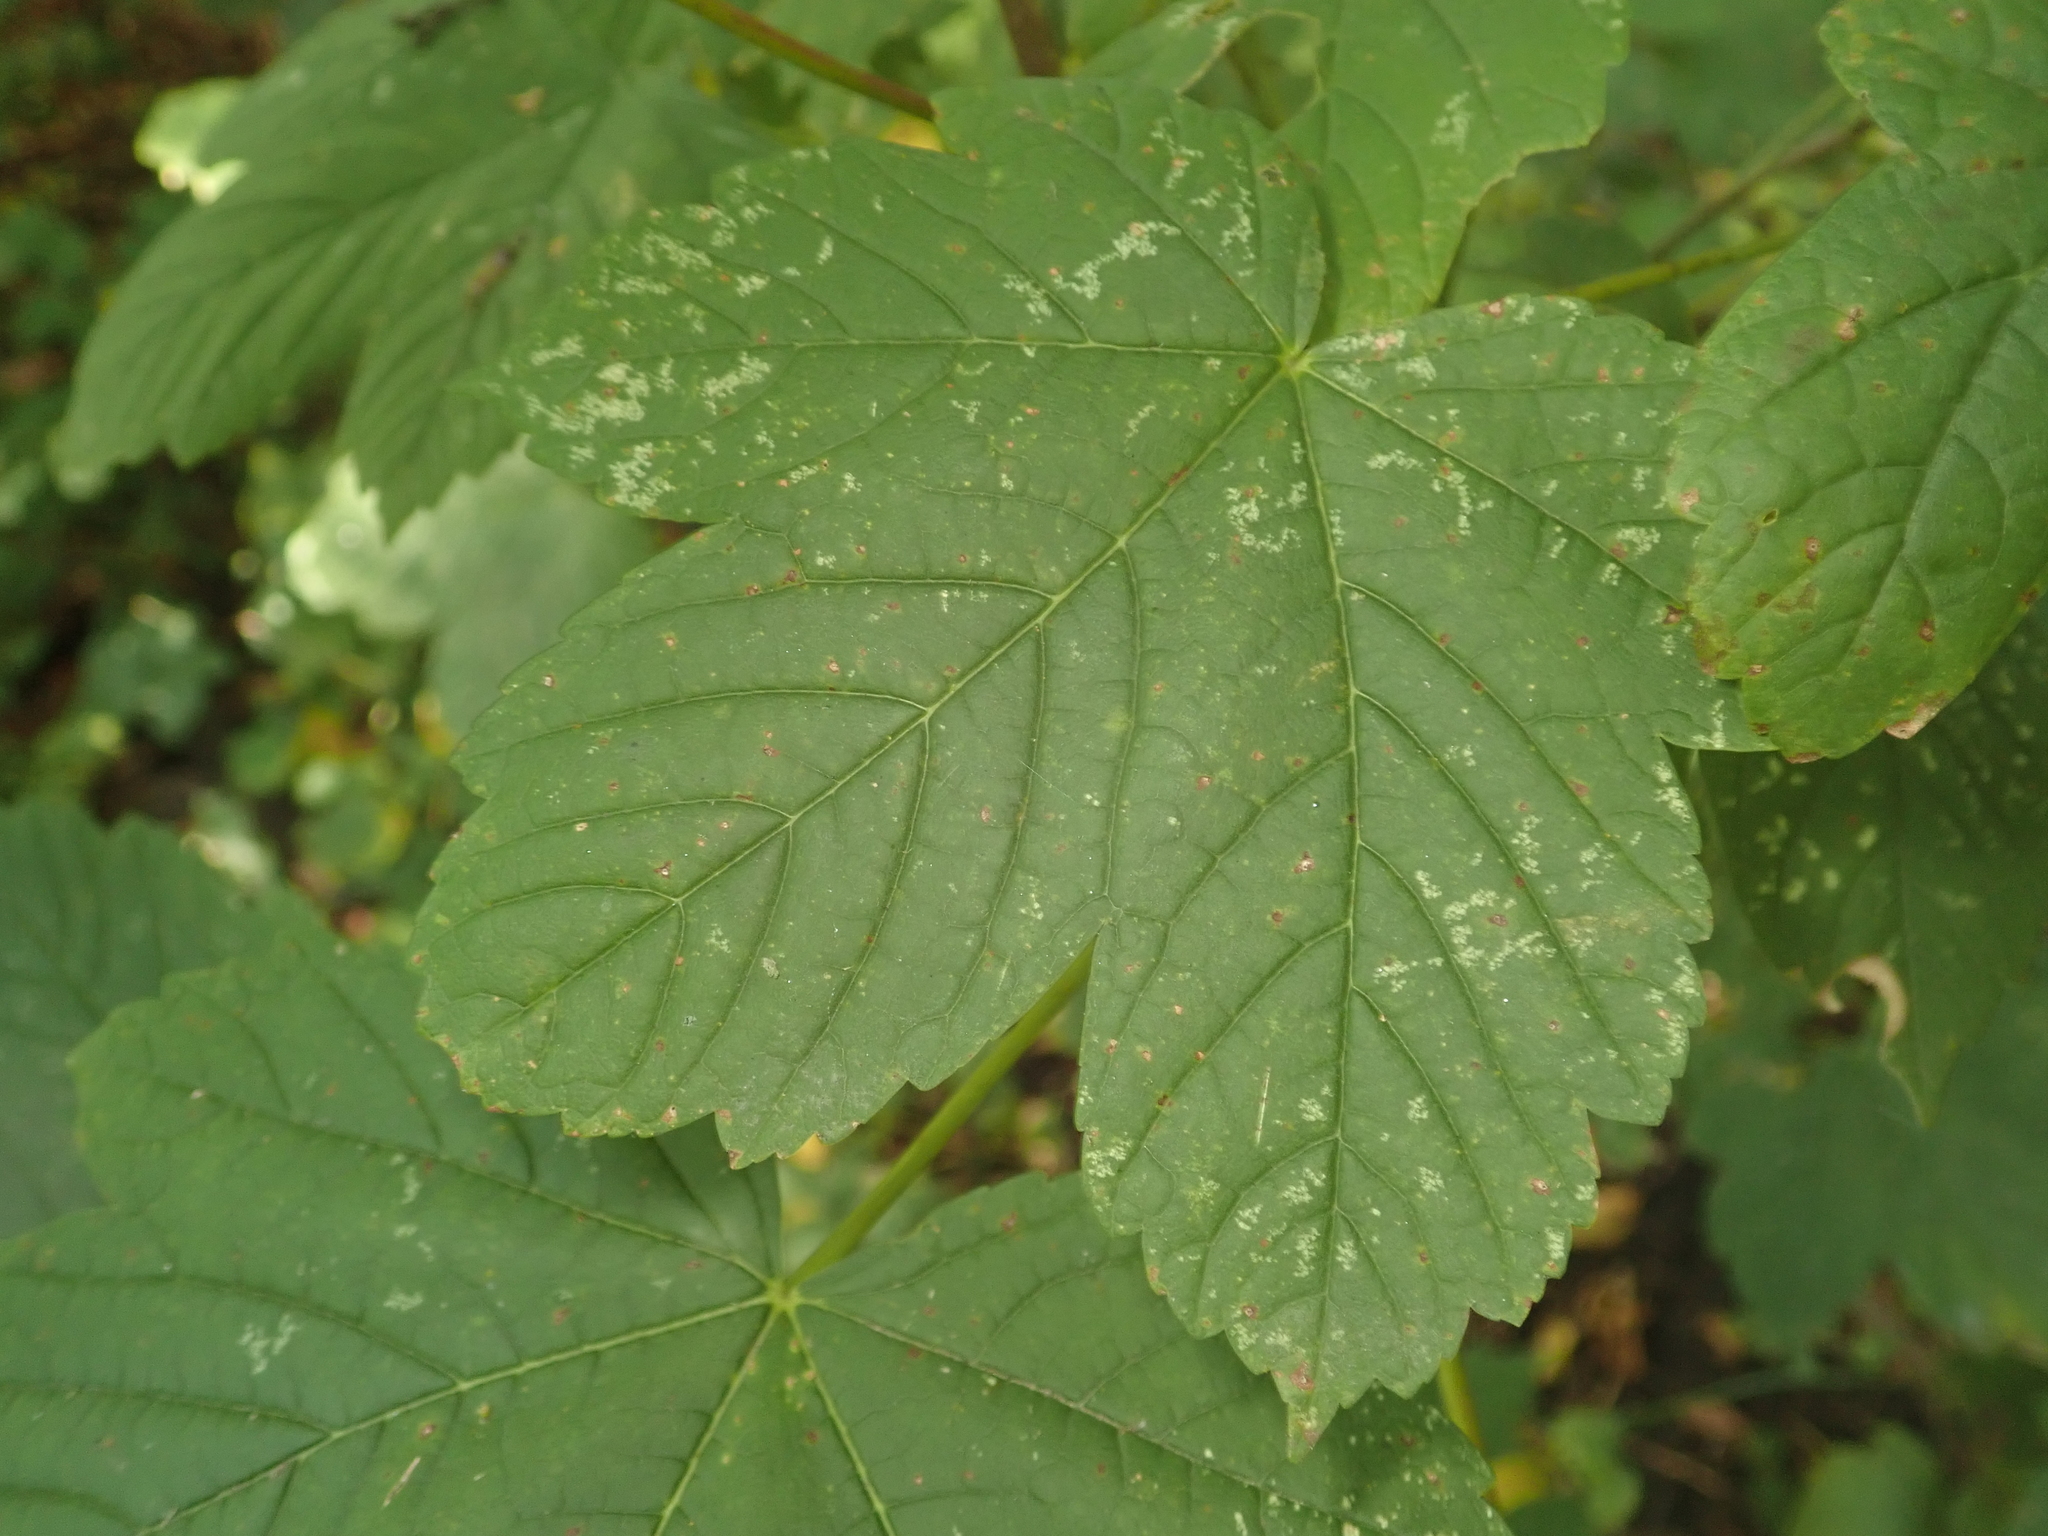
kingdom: Plantae
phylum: Tracheophyta
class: Magnoliopsida
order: Sapindales
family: Sapindaceae
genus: Acer
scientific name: Acer pseudoplatanus
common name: Sycamore
